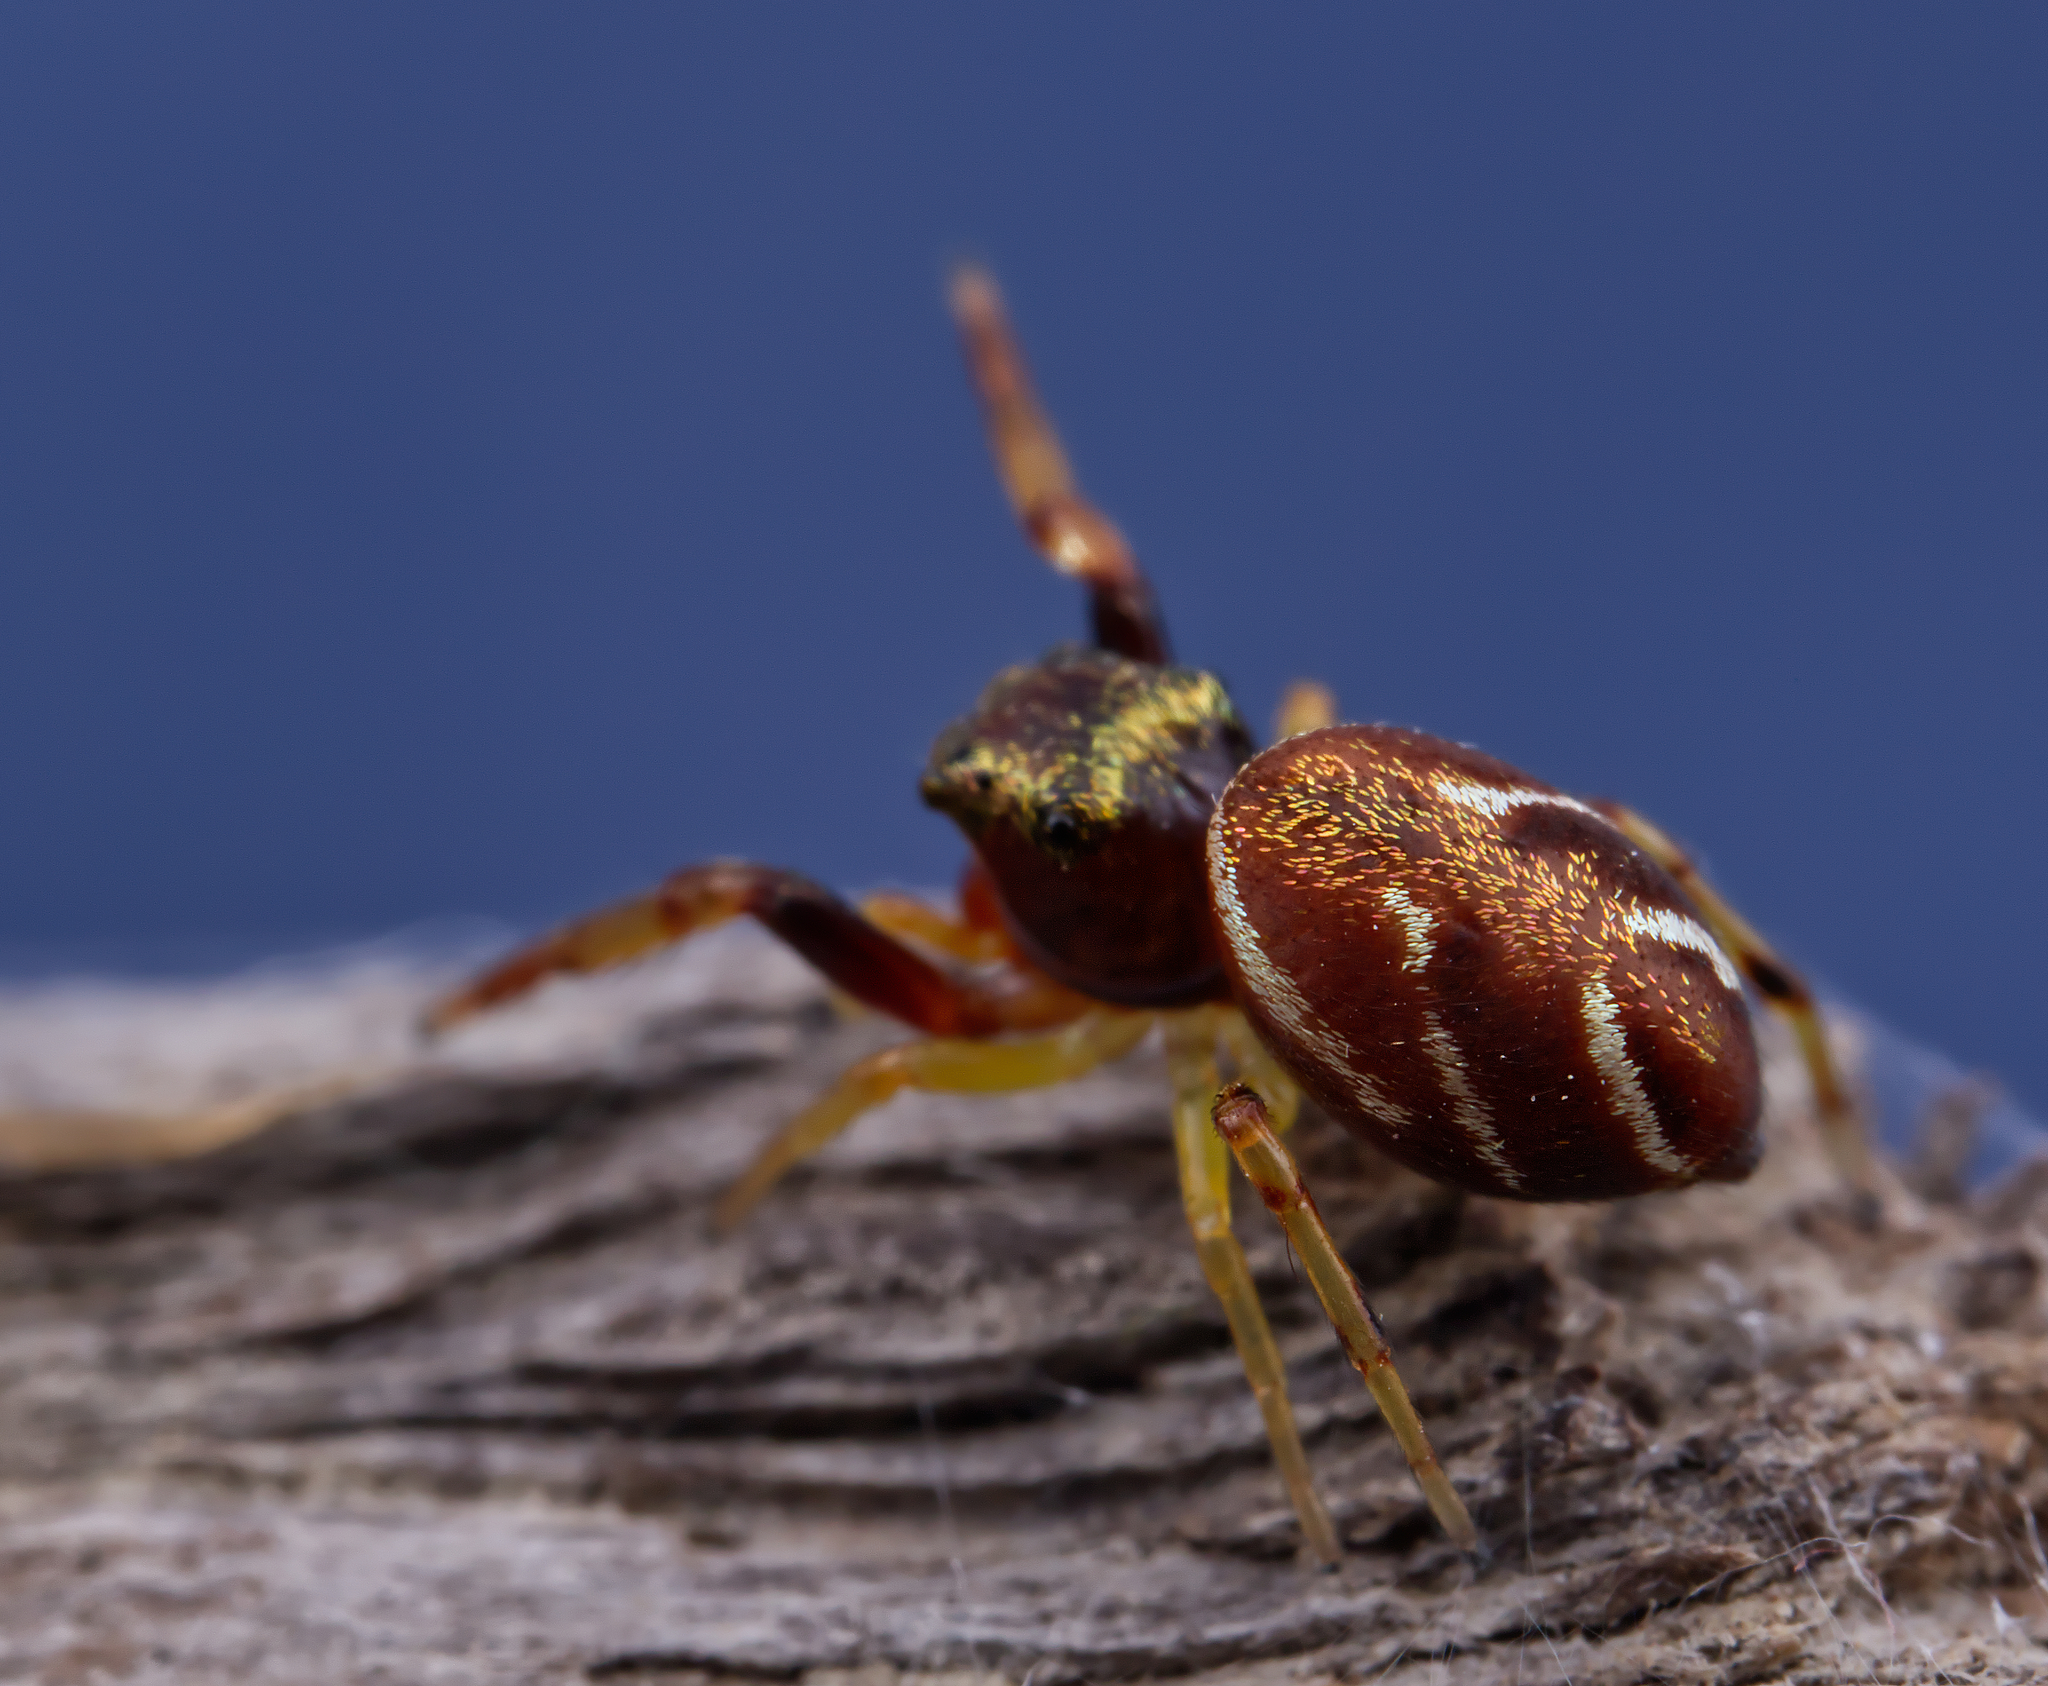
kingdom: Animalia
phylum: Arthropoda
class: Arachnida
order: Araneae
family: Salticidae
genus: Zygoballus
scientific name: Zygoballus rufipes
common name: Jumping spiders
